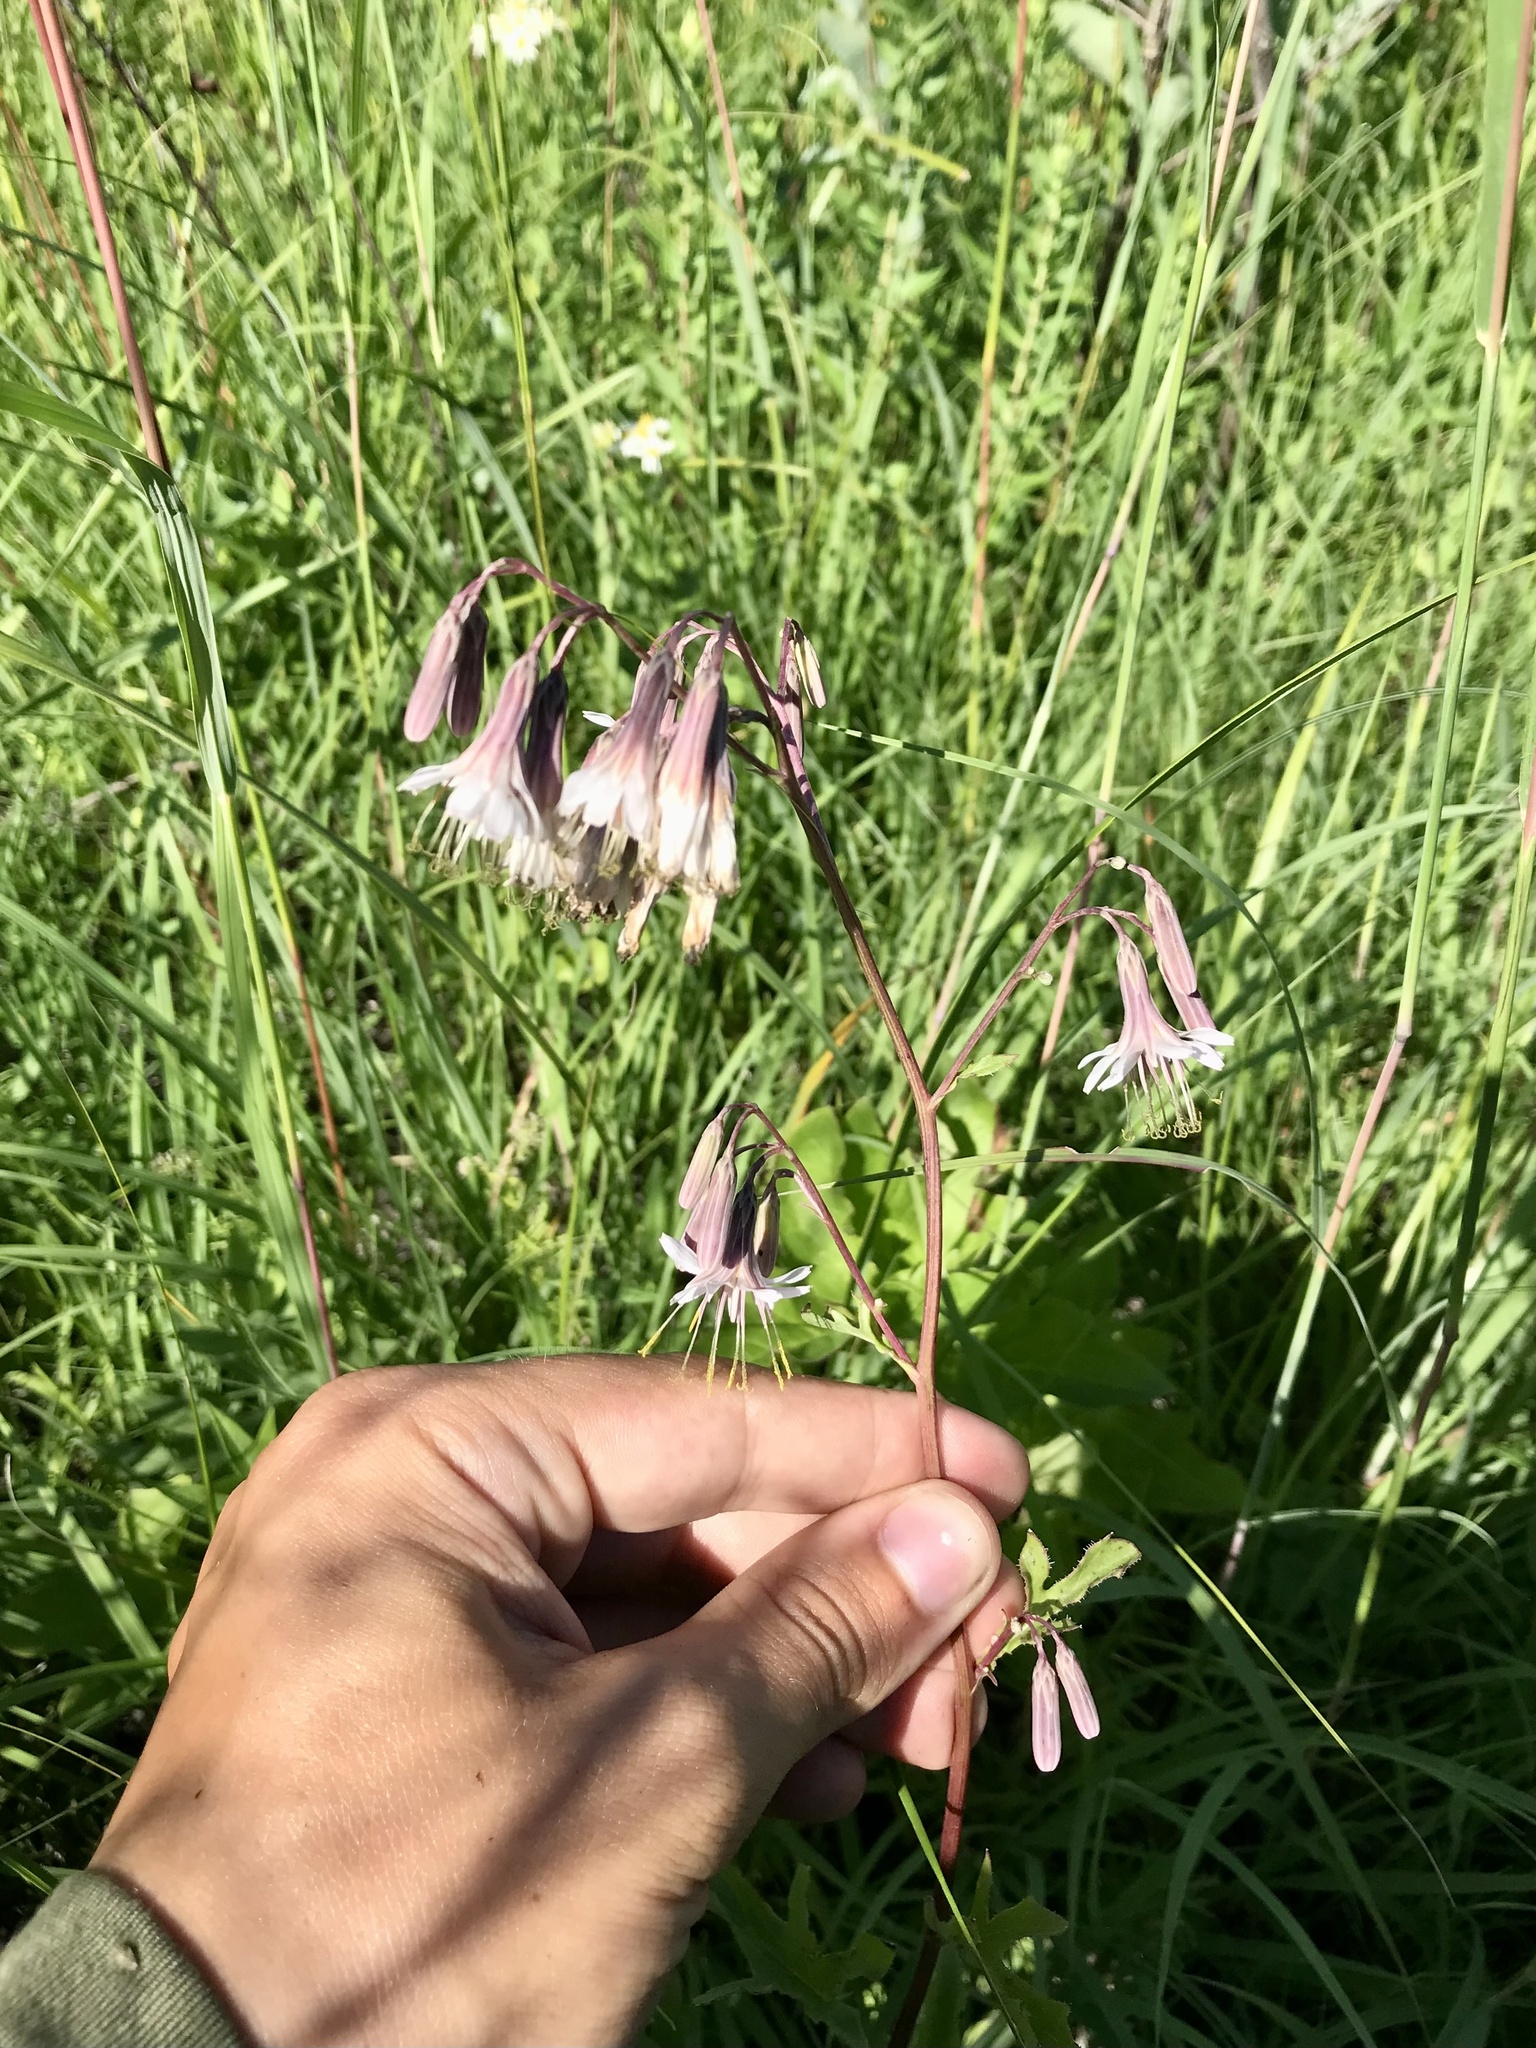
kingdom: Plantae
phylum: Tracheophyta
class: Magnoliopsida
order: Asterales
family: Asteraceae
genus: Nabalus
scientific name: Nabalus albus
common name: White rattlesnakeroot
